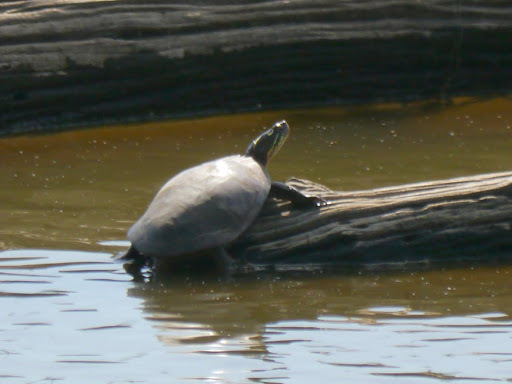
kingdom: Animalia
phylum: Chordata
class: Testudines
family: Emydidae
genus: Chrysemys
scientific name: Chrysemys picta
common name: Painted turtle
